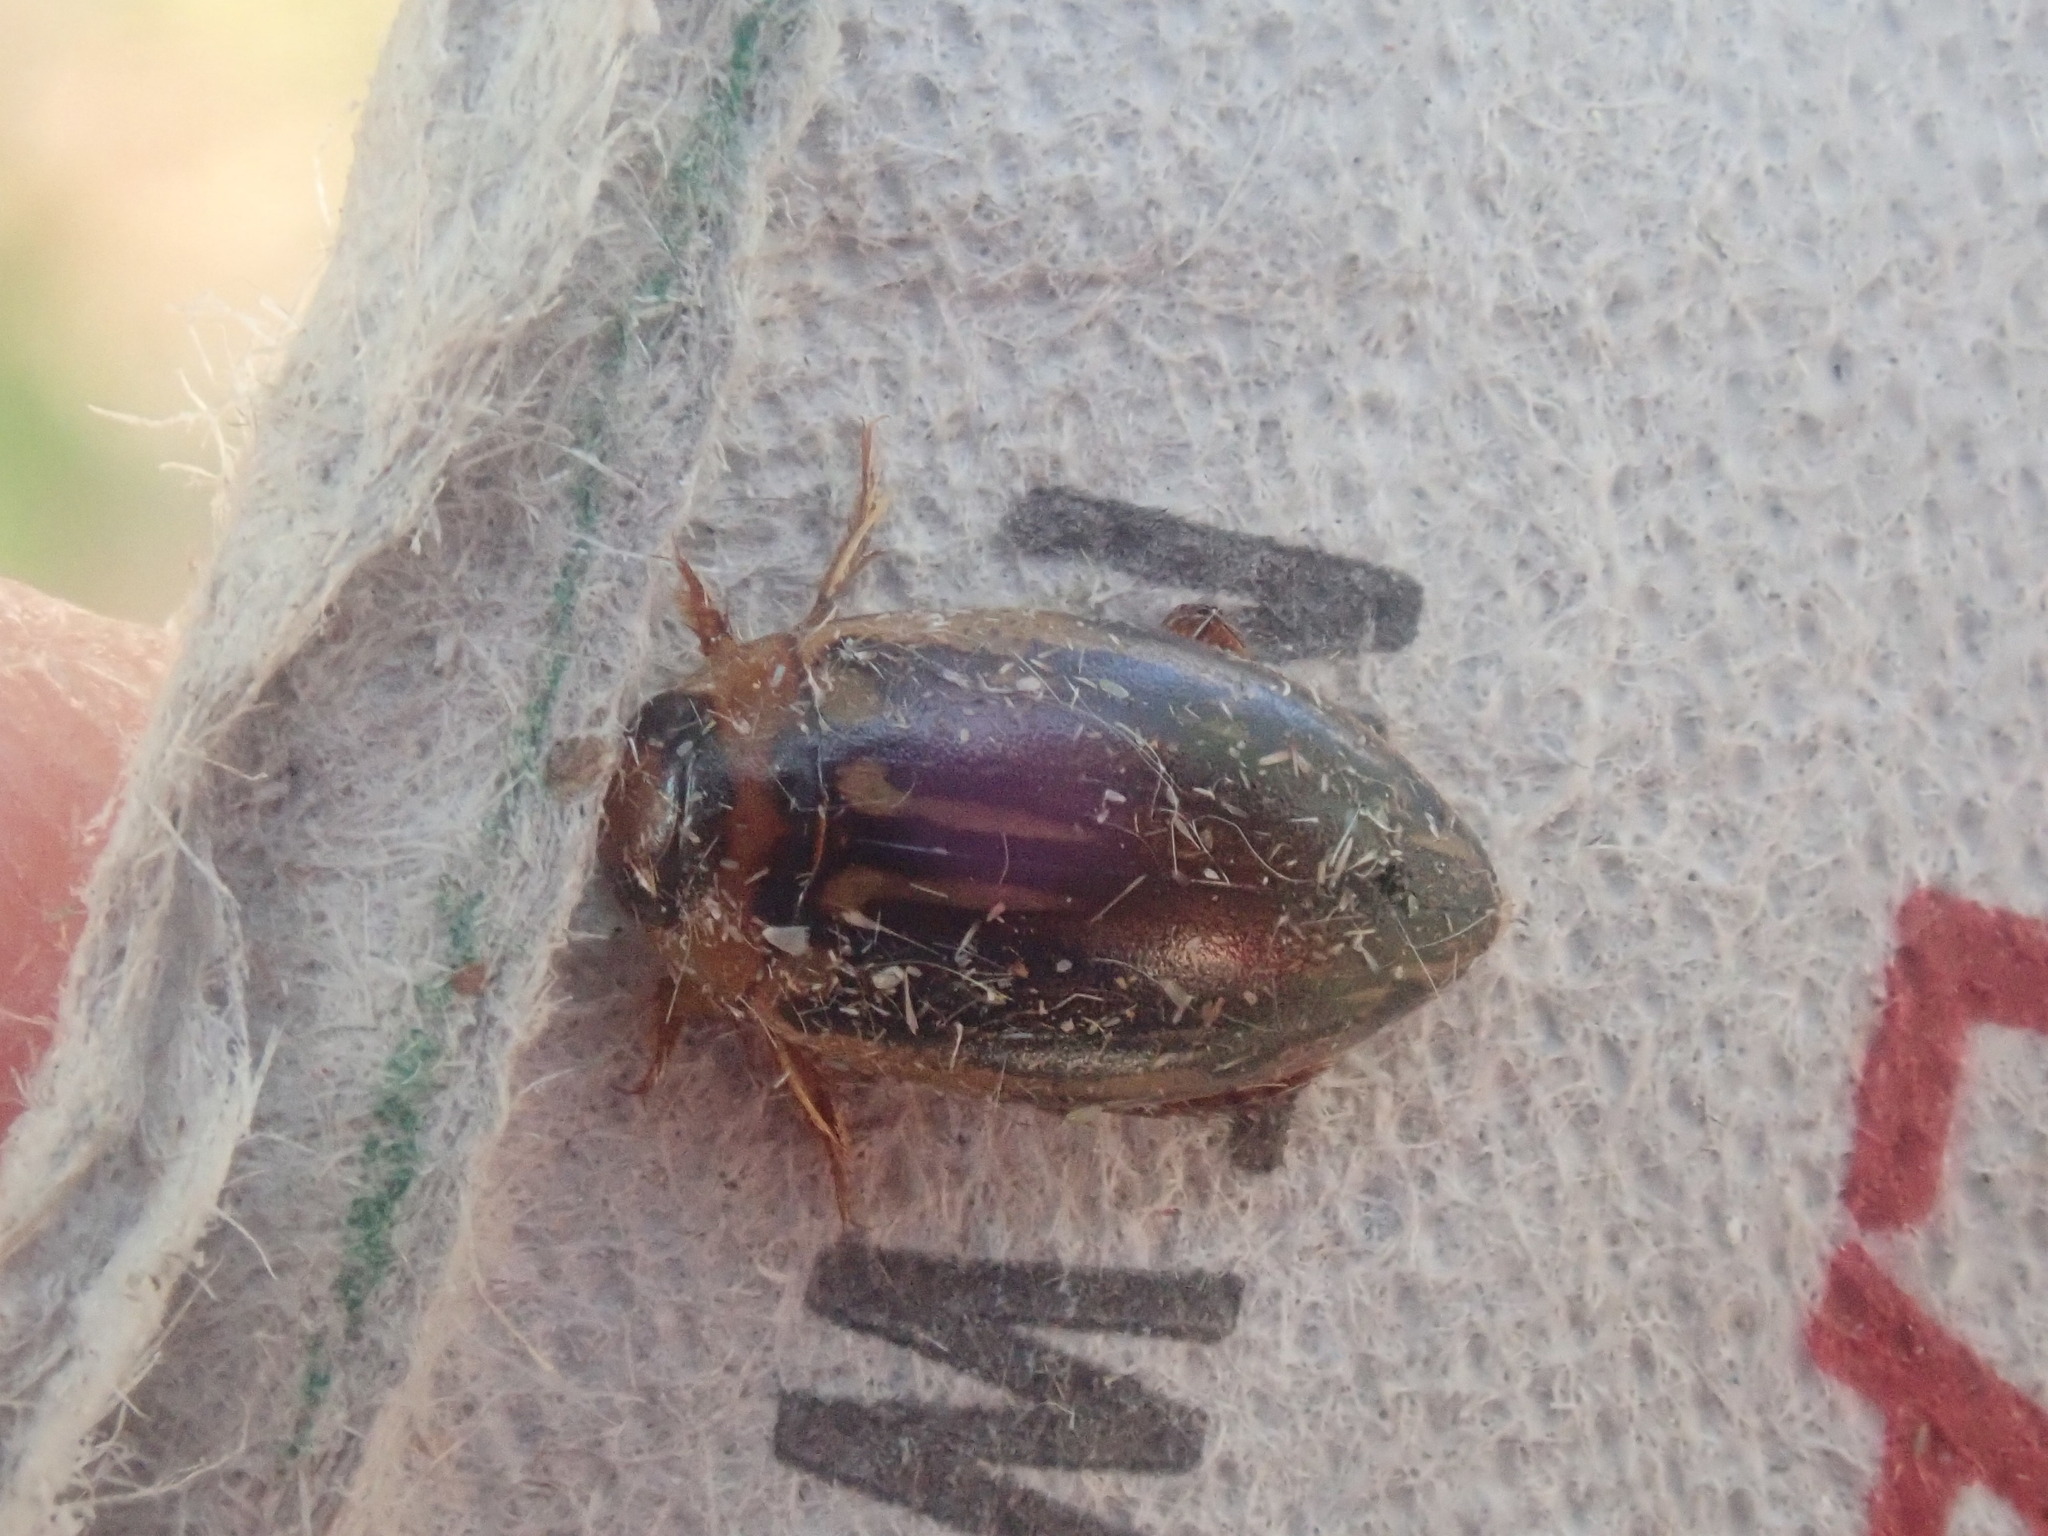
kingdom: Animalia
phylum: Arthropoda
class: Insecta
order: Coleoptera
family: Dytiscidae
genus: Coptotomus
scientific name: Coptotomus longulus
